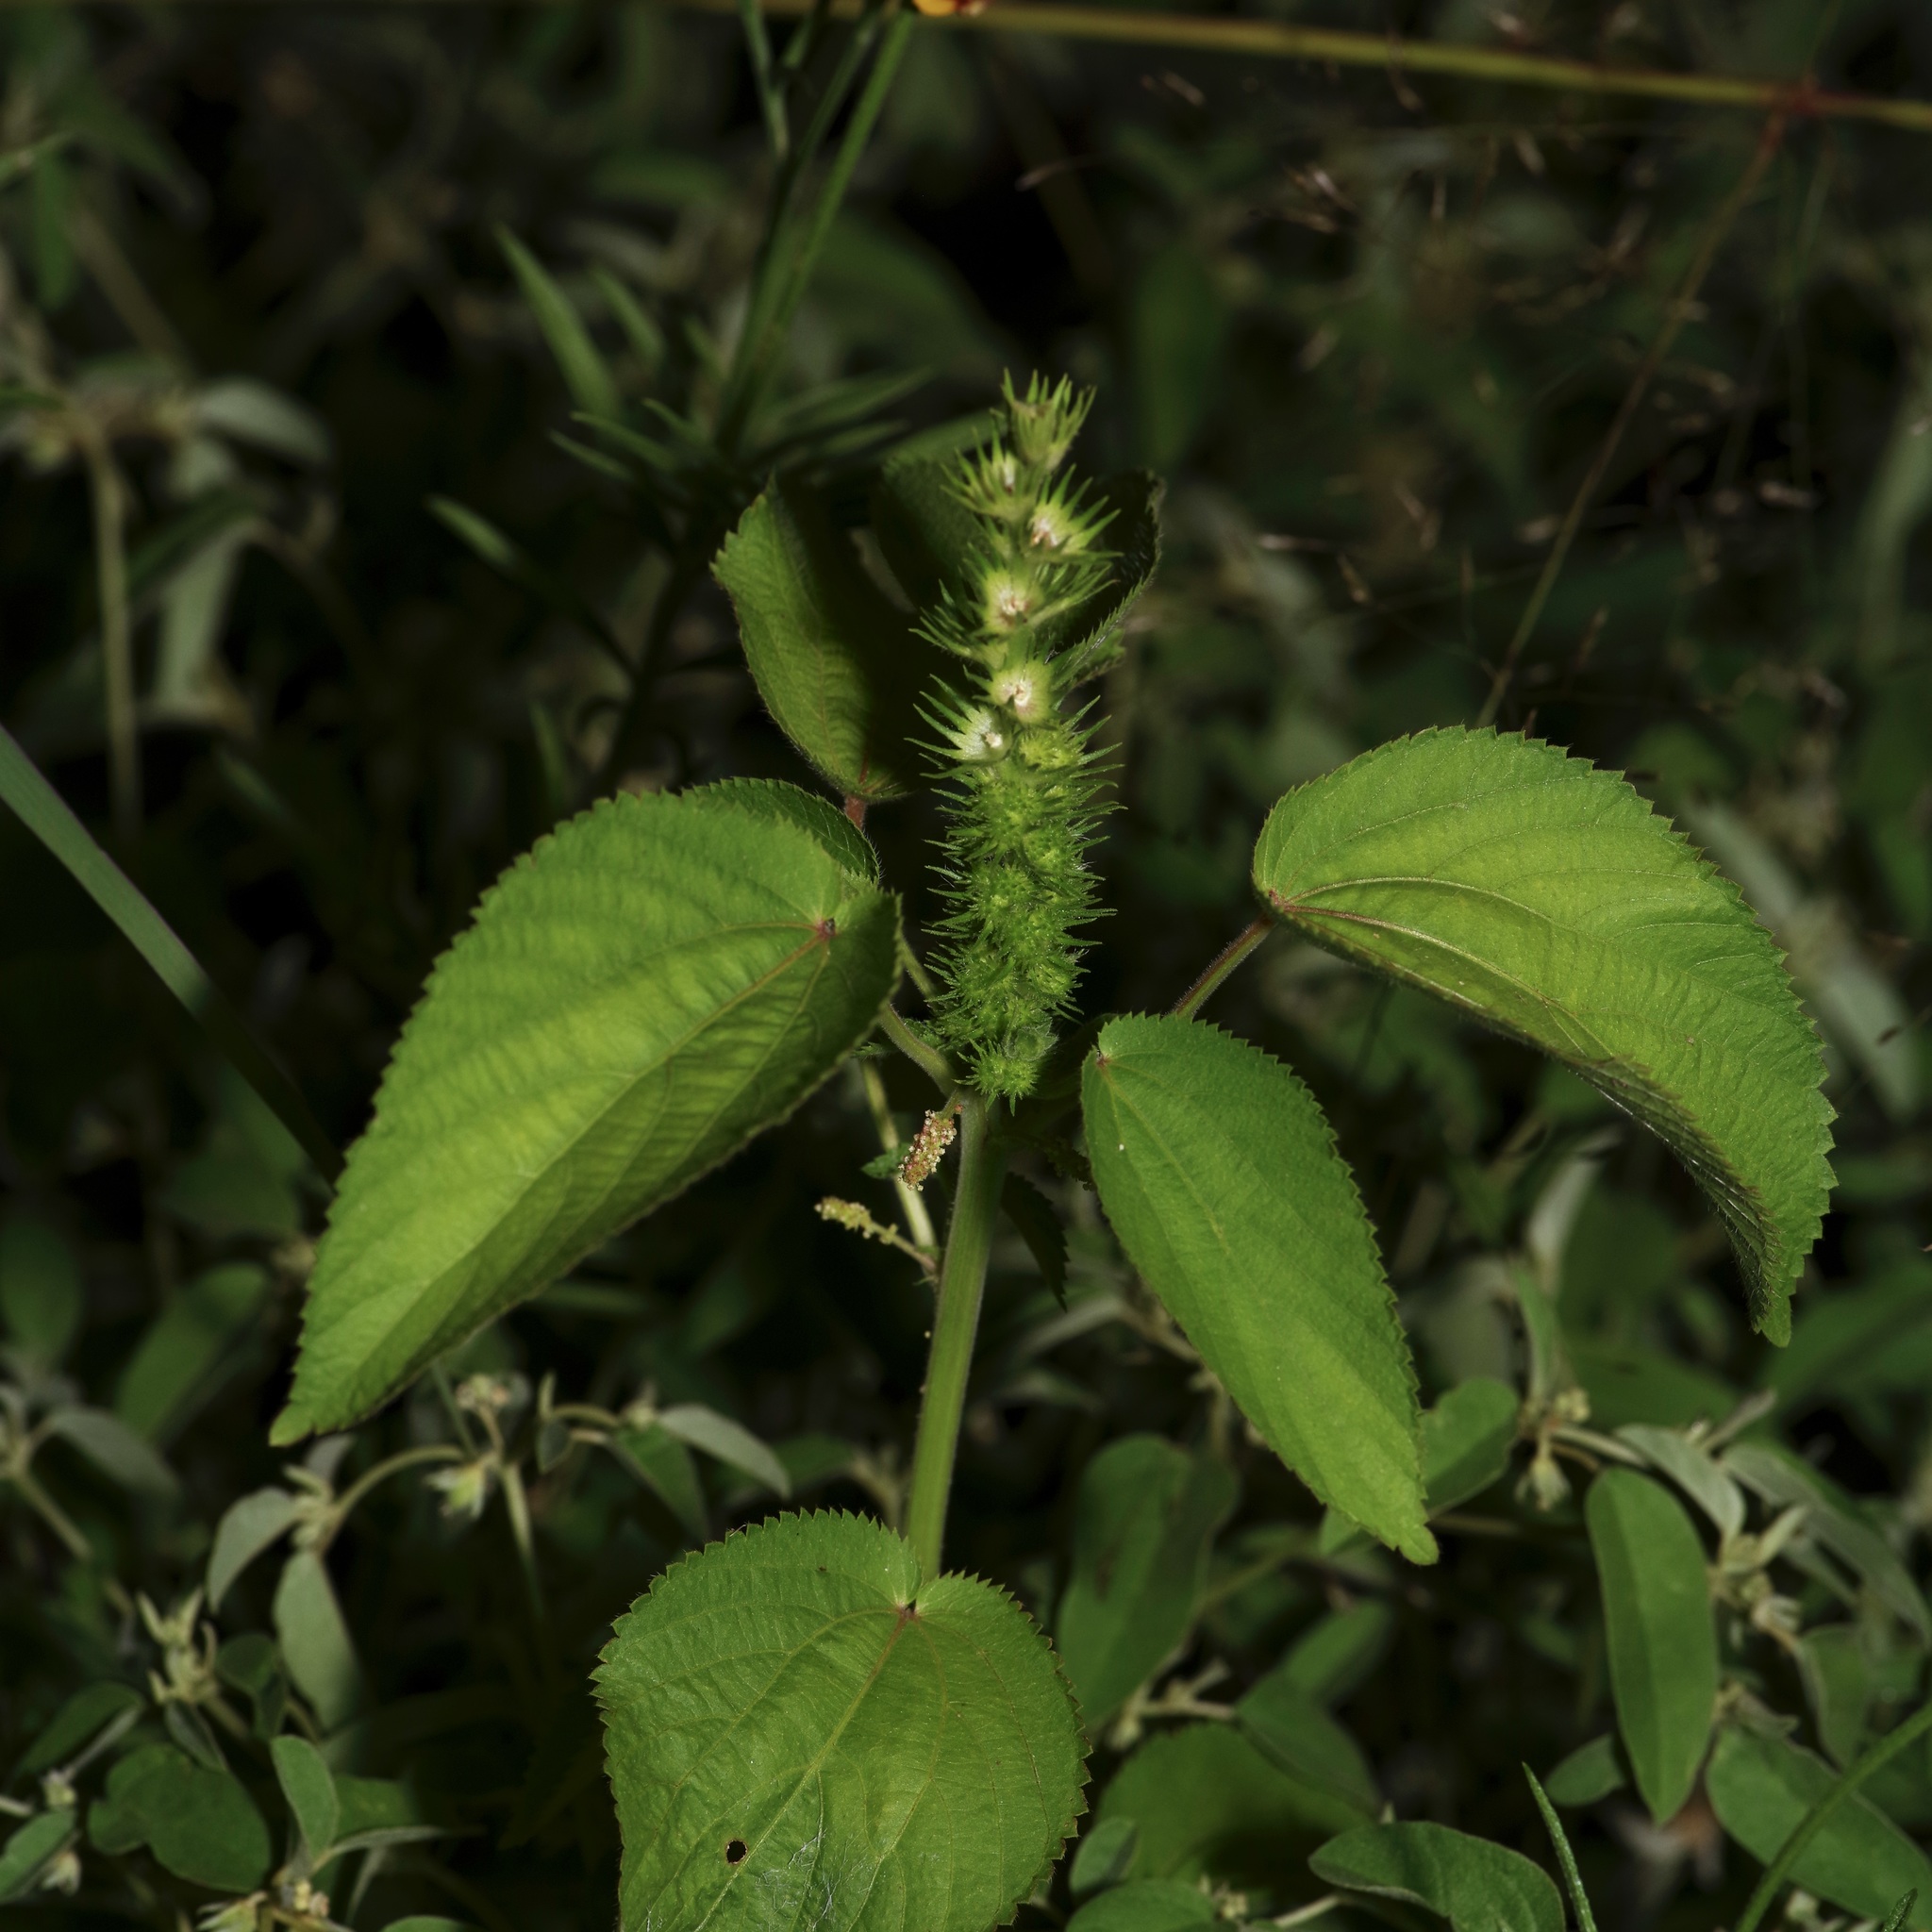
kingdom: Plantae
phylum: Tracheophyta
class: Magnoliopsida
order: Malpighiales
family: Euphorbiaceae
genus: Acalypha
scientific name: Acalypha ostryifolia
